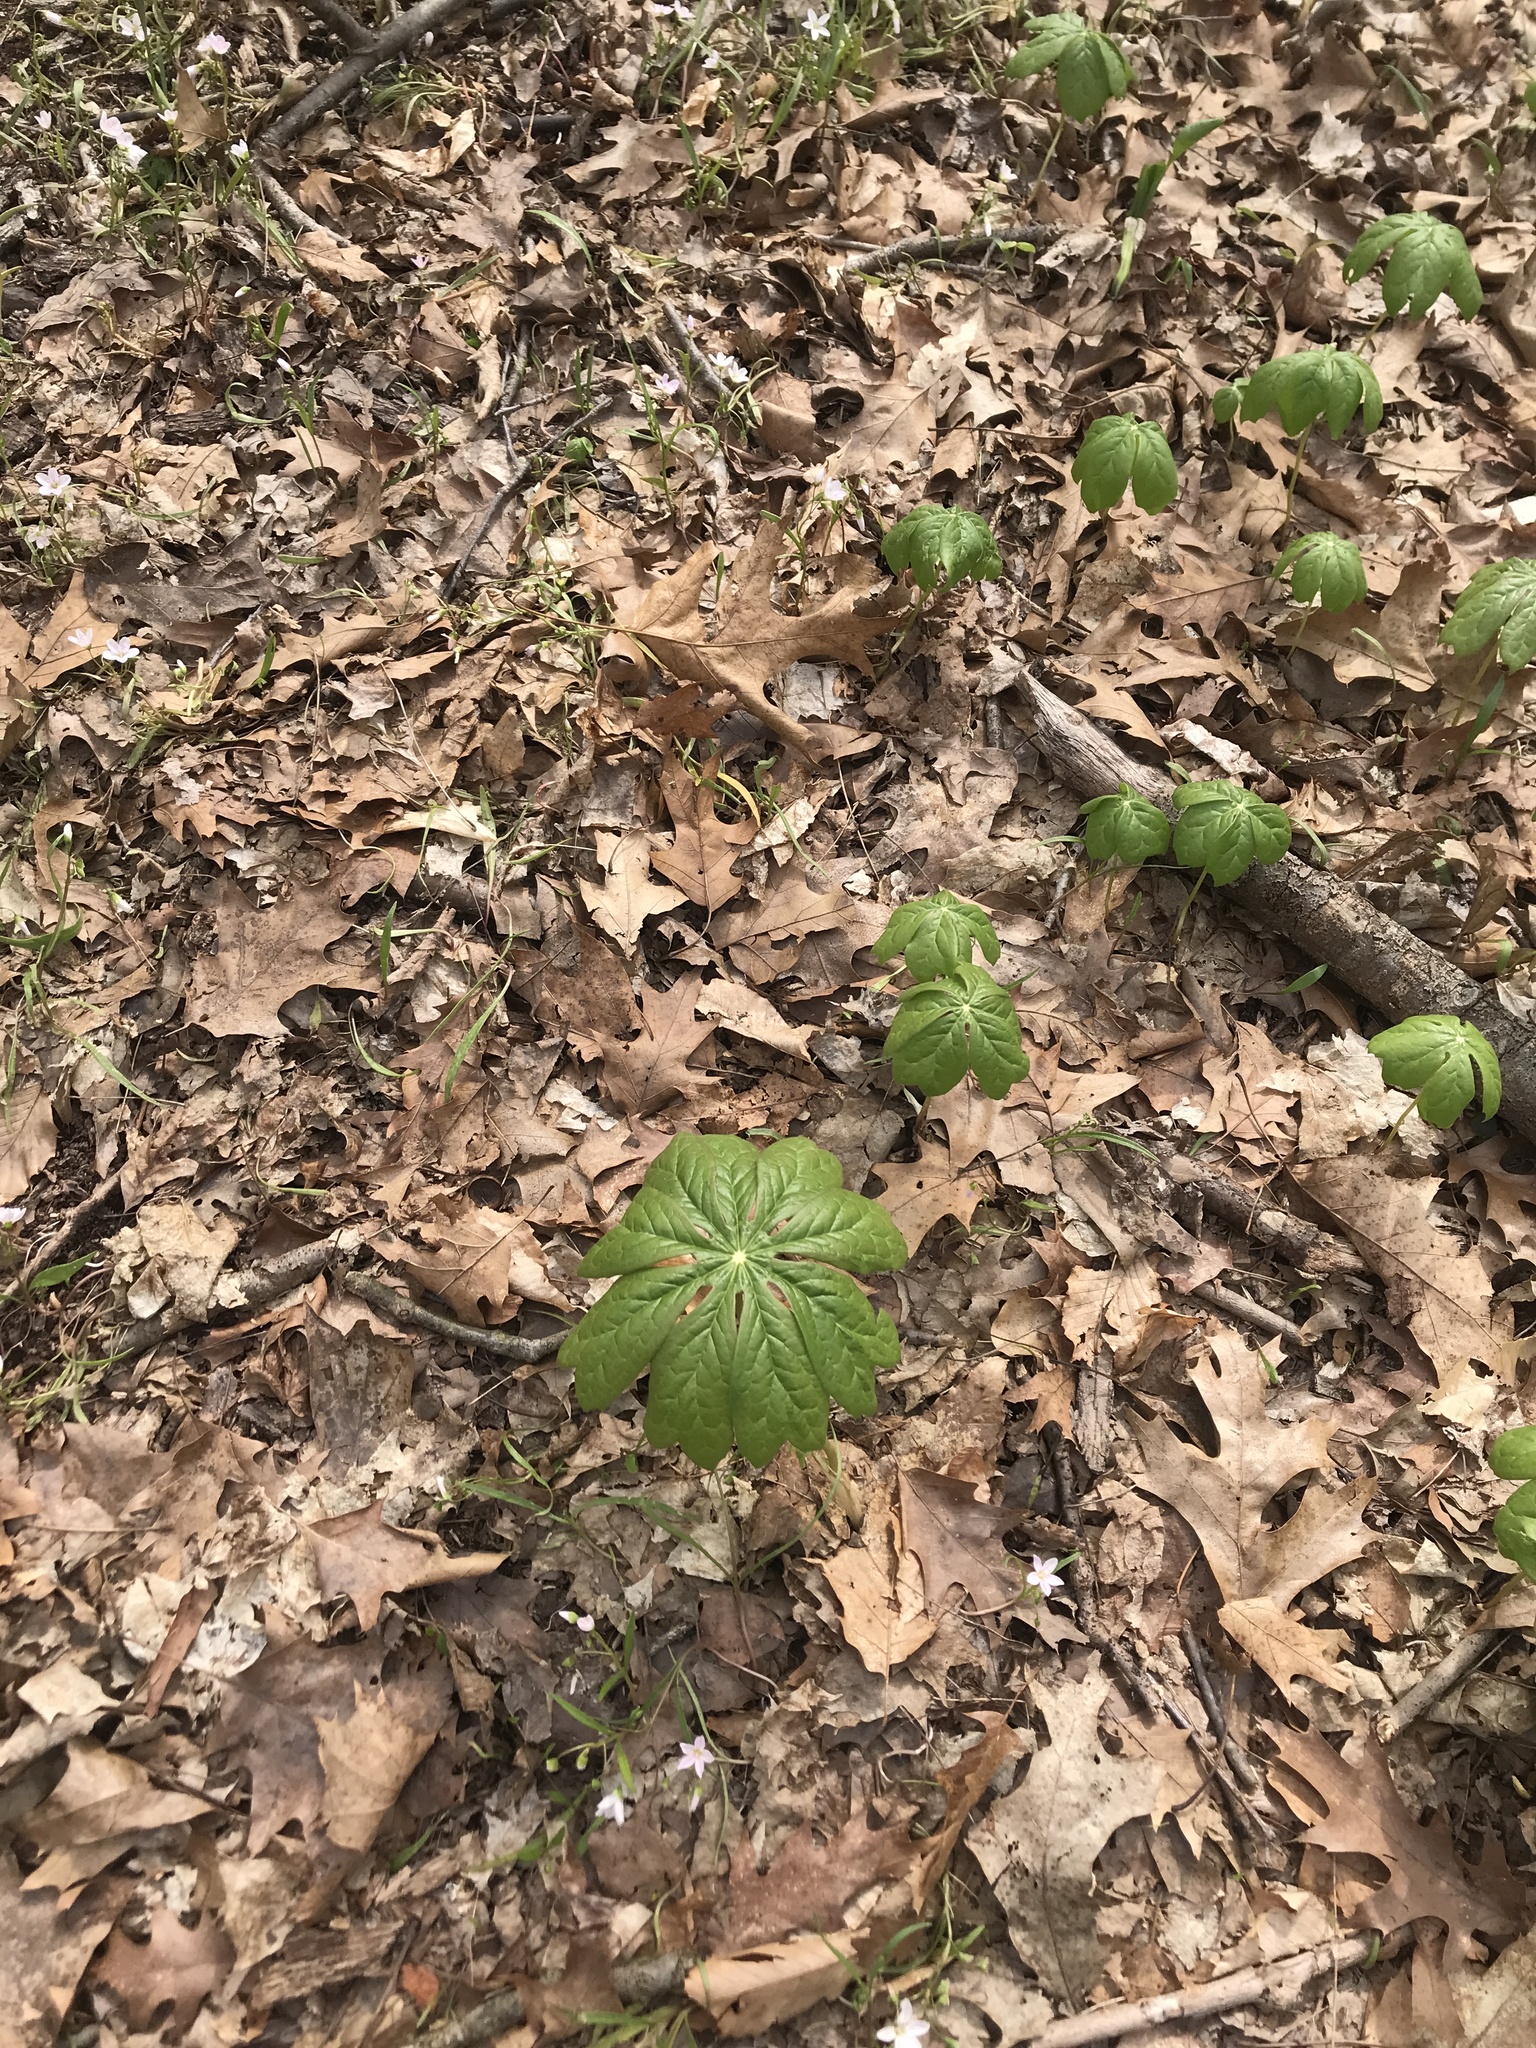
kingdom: Plantae
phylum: Tracheophyta
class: Magnoliopsida
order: Ranunculales
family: Berberidaceae
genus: Podophyllum
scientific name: Podophyllum peltatum
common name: Wild mandrake
